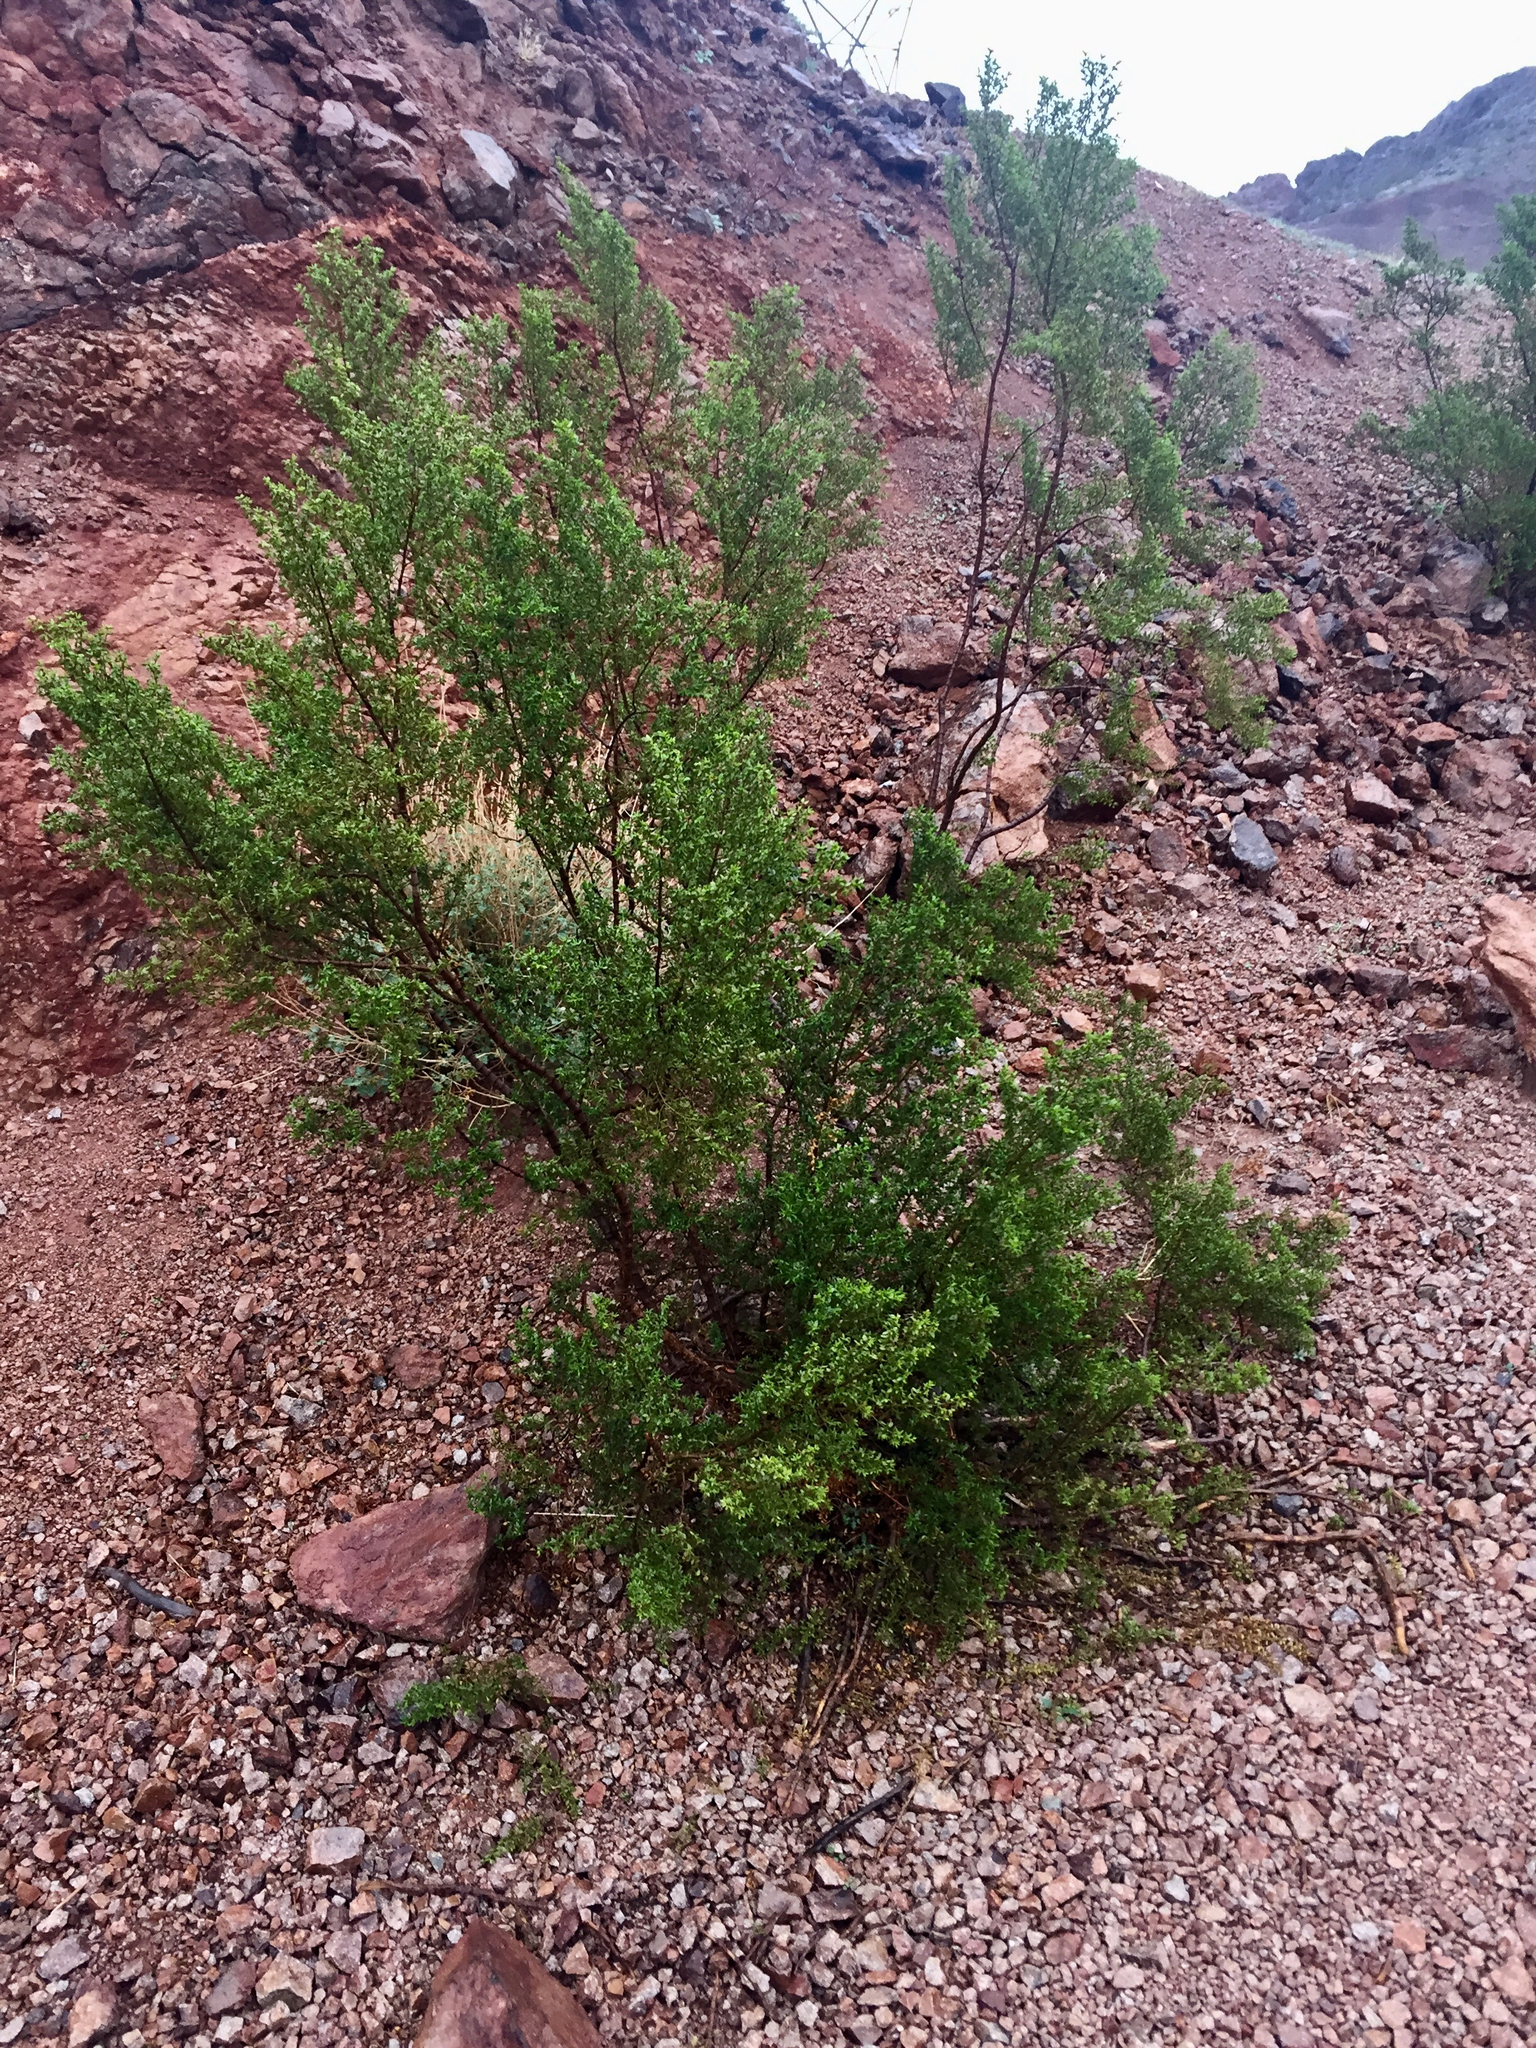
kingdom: Plantae
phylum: Tracheophyta
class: Magnoliopsida
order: Zygophyllales
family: Zygophyllaceae
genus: Larrea
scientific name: Larrea tridentata
